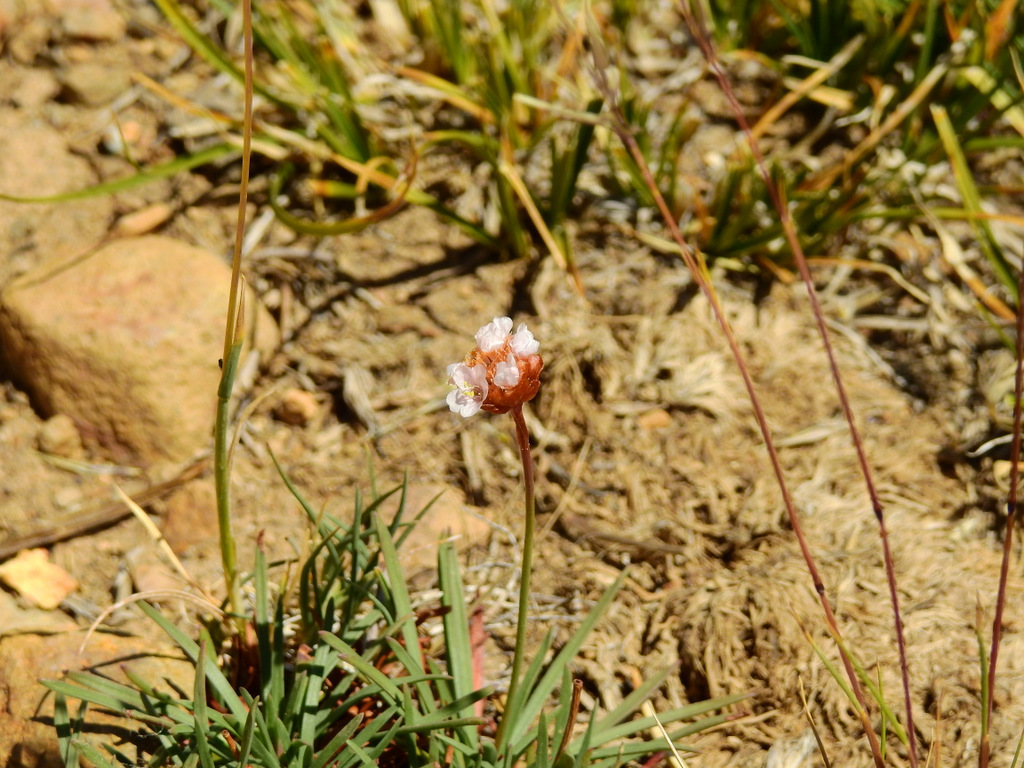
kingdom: Plantae
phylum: Tracheophyta
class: Magnoliopsida
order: Caryophyllales
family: Plumbaginaceae
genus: Armeria
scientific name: Armeria curvifolia
